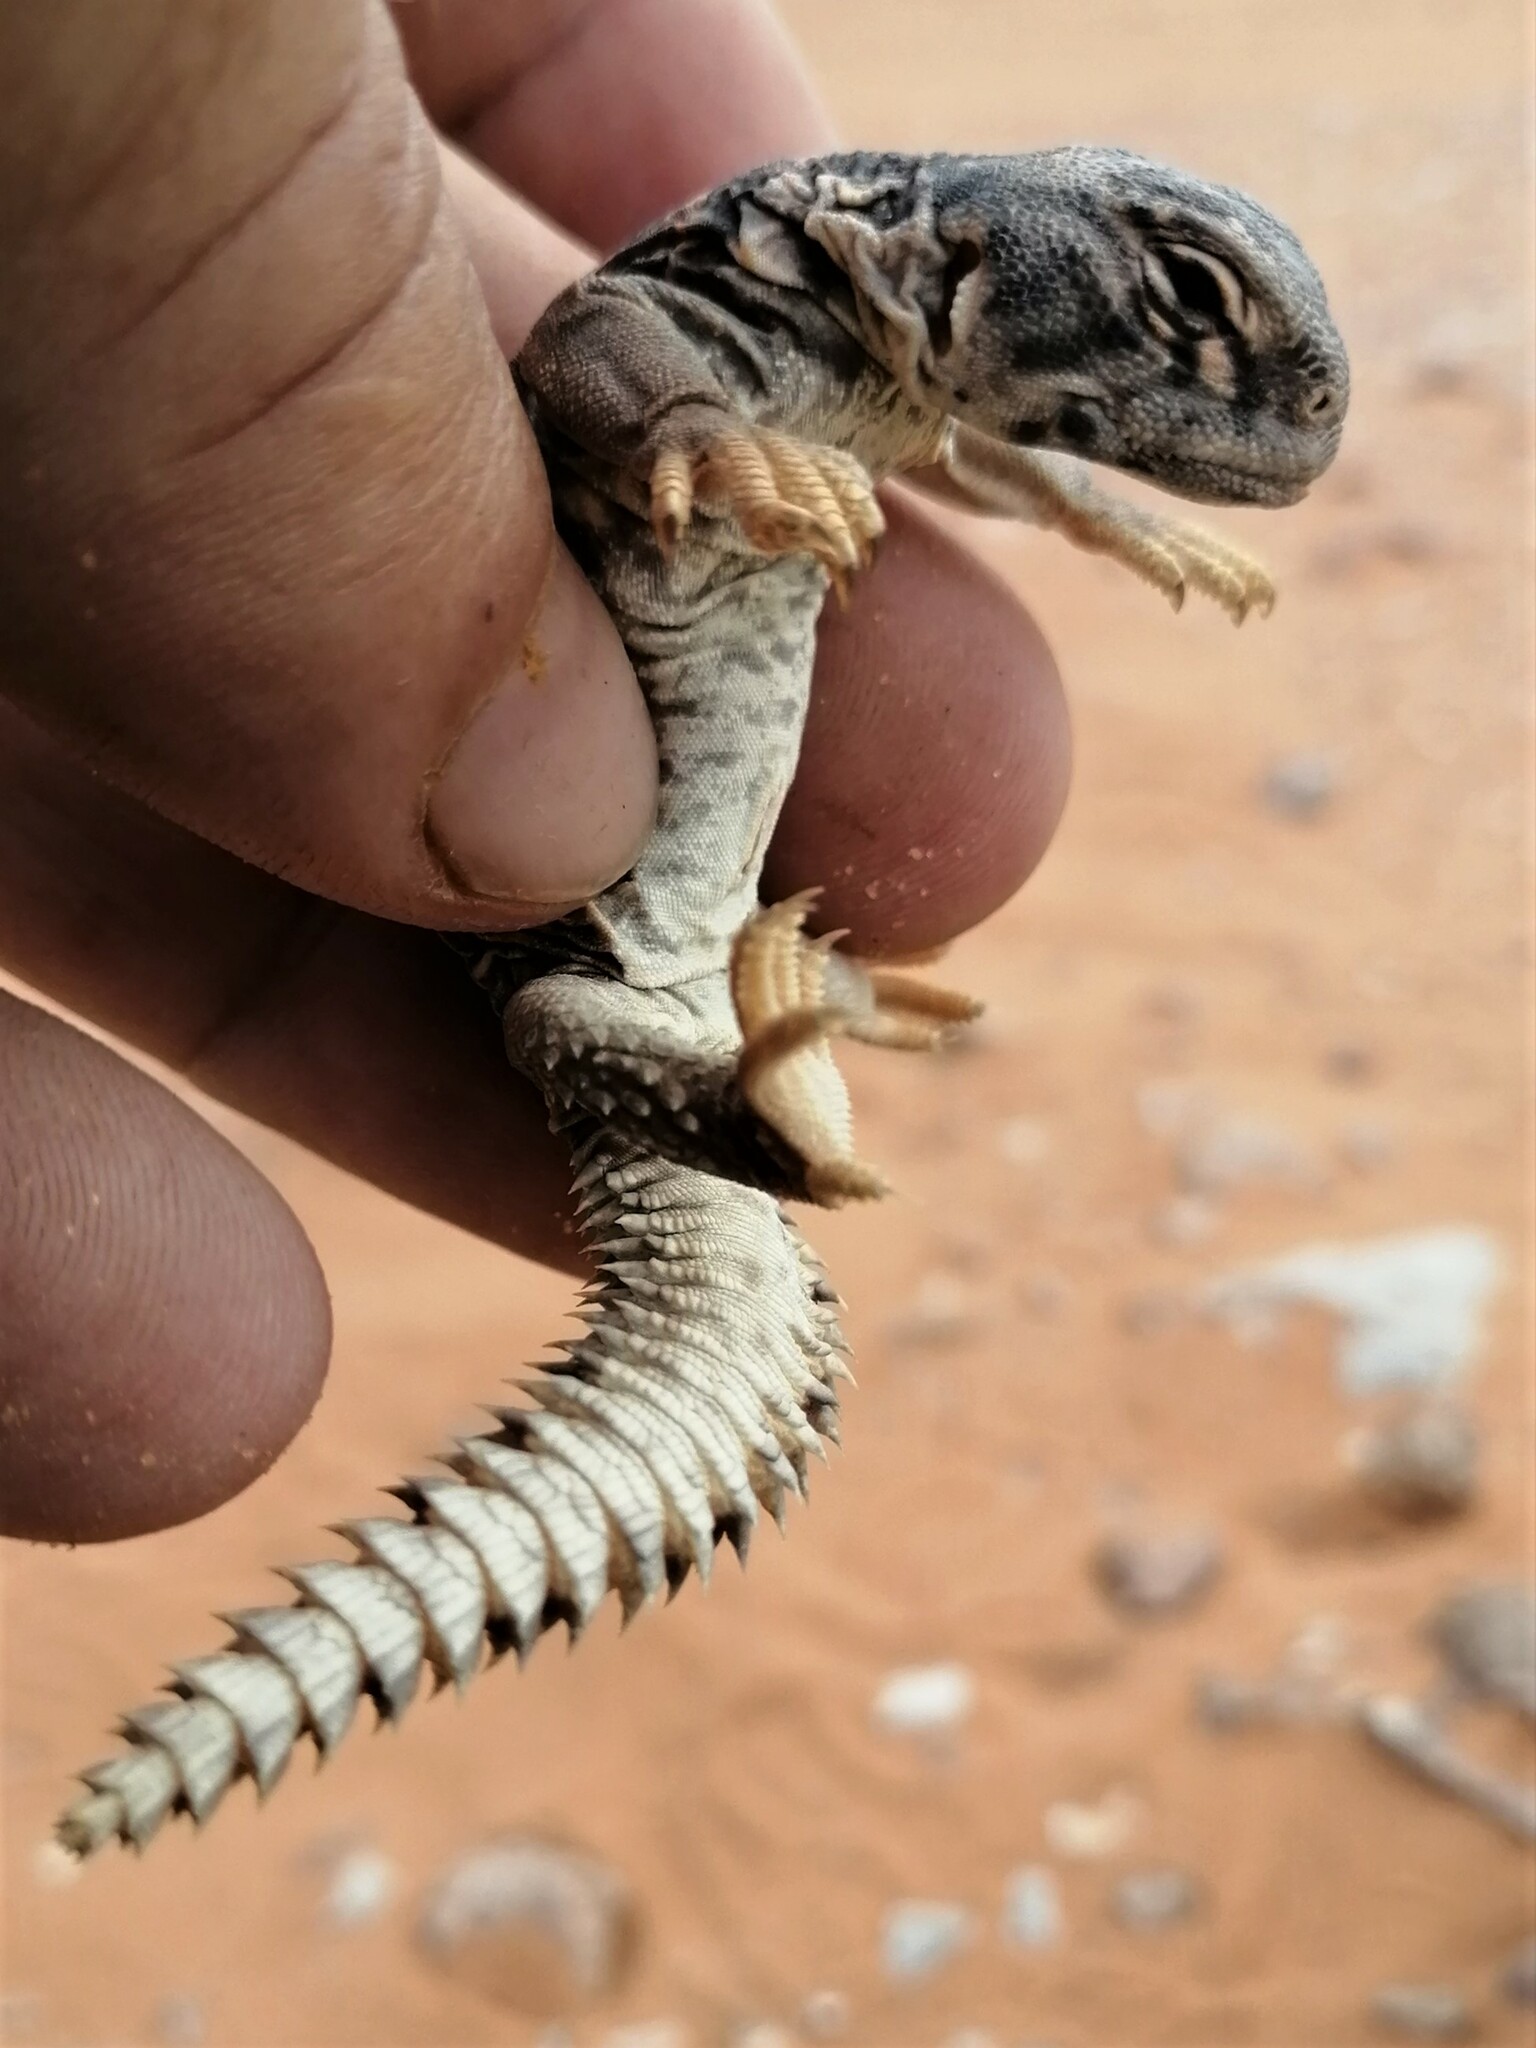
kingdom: Animalia
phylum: Chordata
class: Squamata
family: Agamidae
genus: Uromastyx
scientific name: Uromastyx aegyptia
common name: Egyptian mastigure
